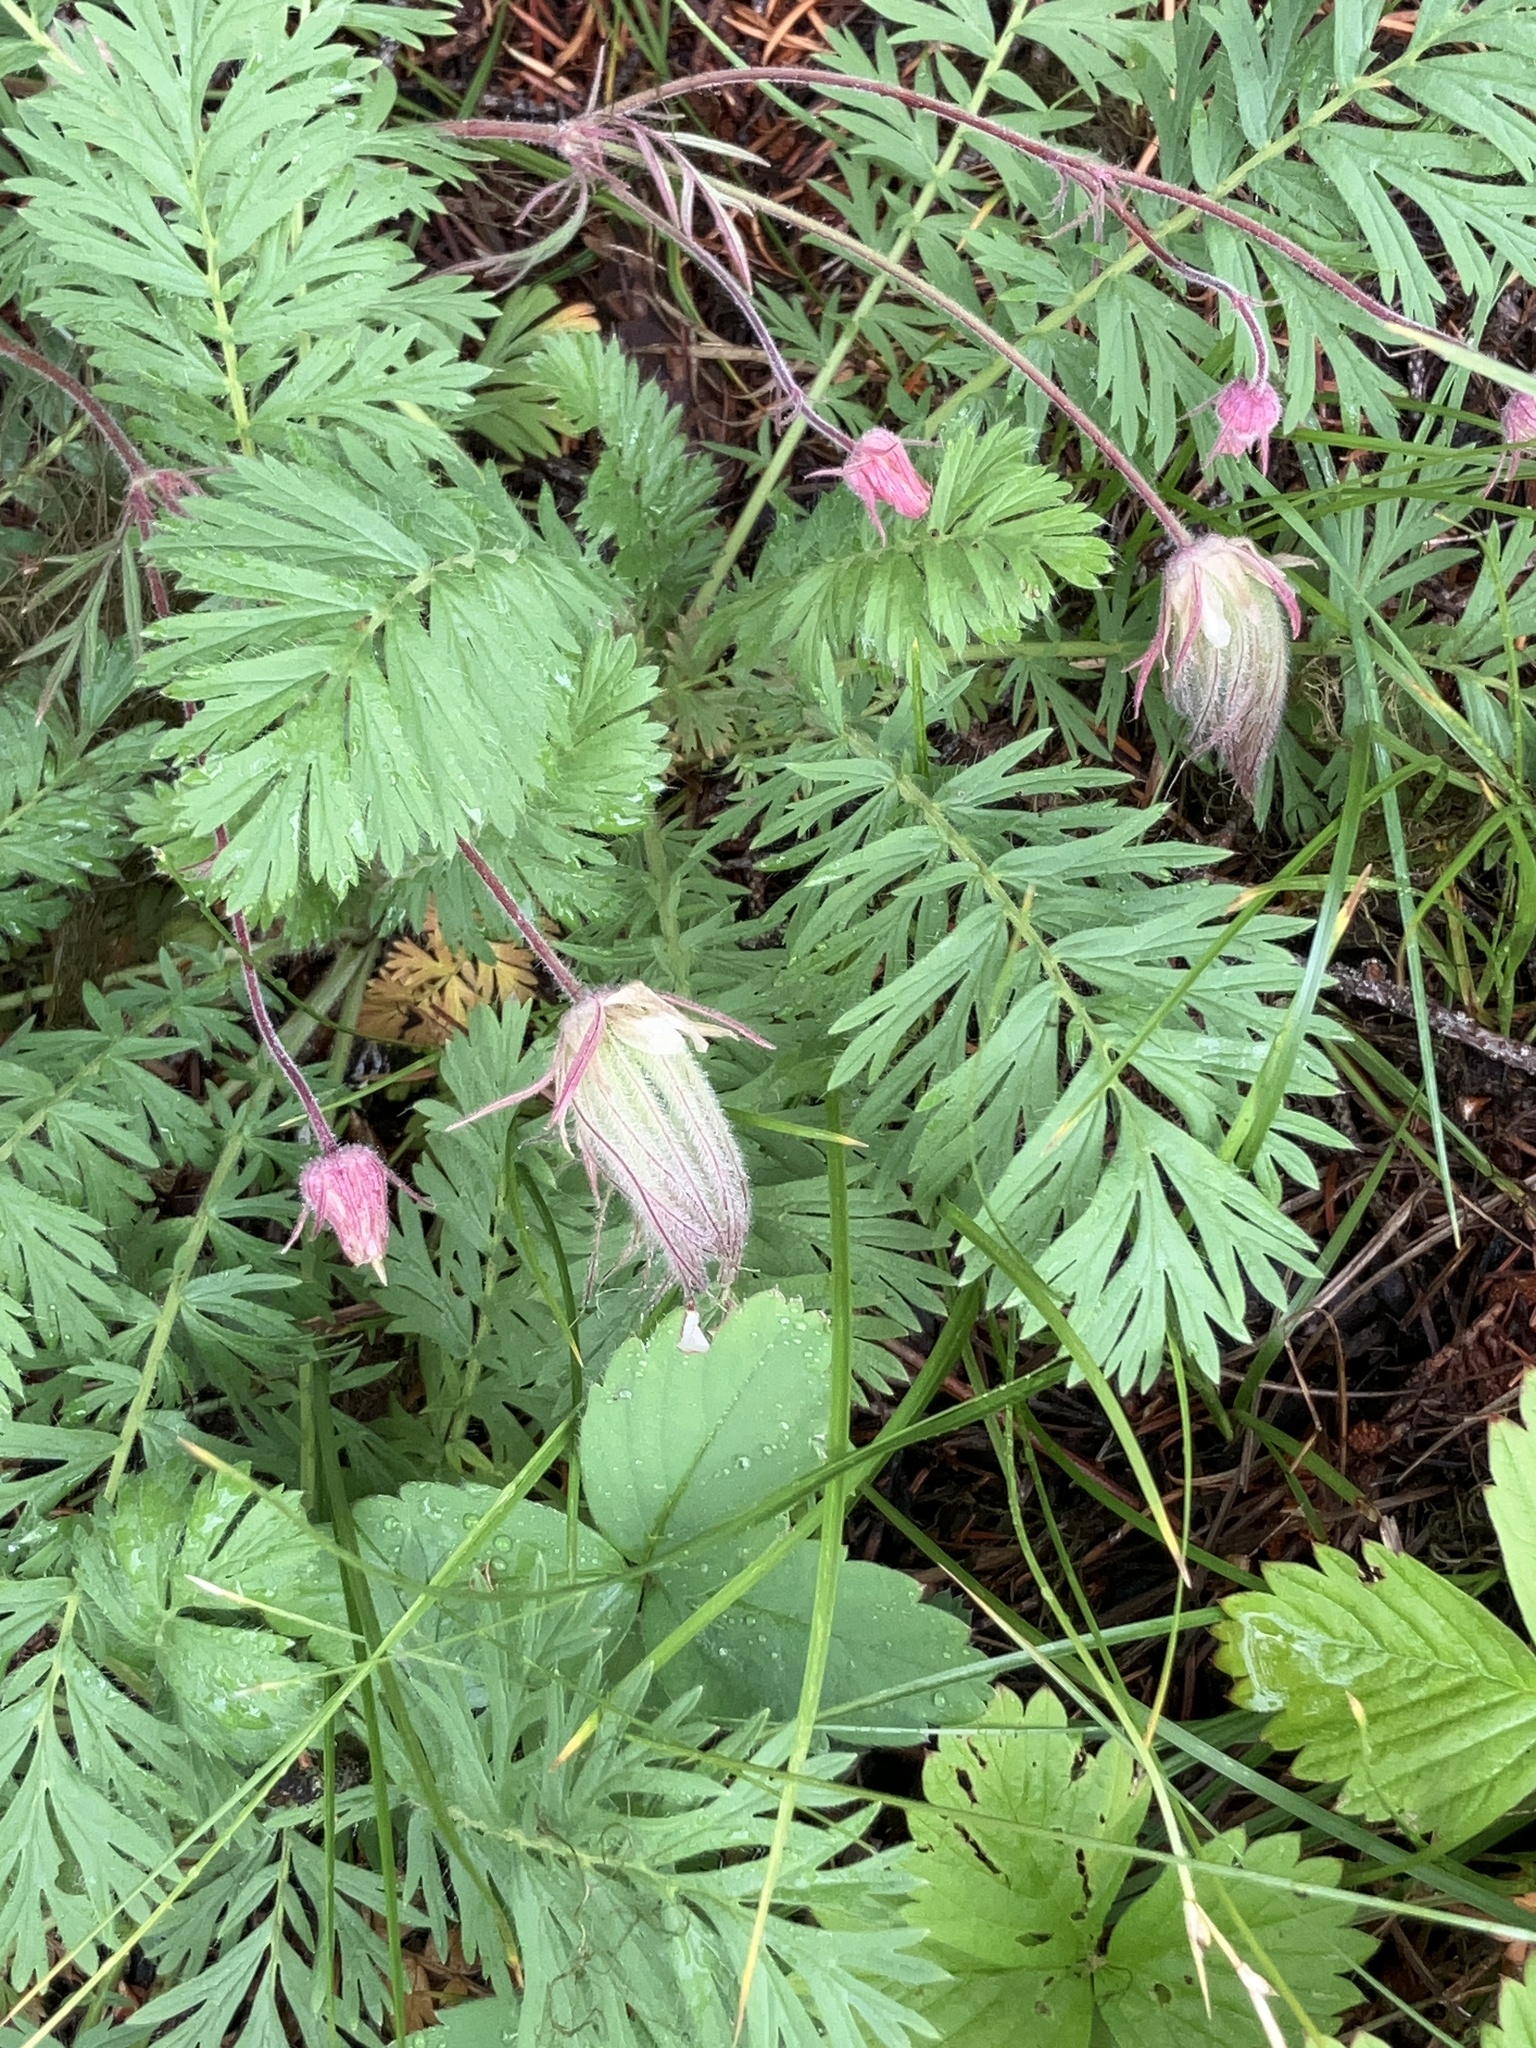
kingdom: Plantae
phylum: Tracheophyta
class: Magnoliopsida
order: Rosales
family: Rosaceae
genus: Geum
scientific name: Geum triflorum
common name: Old man's whiskers
